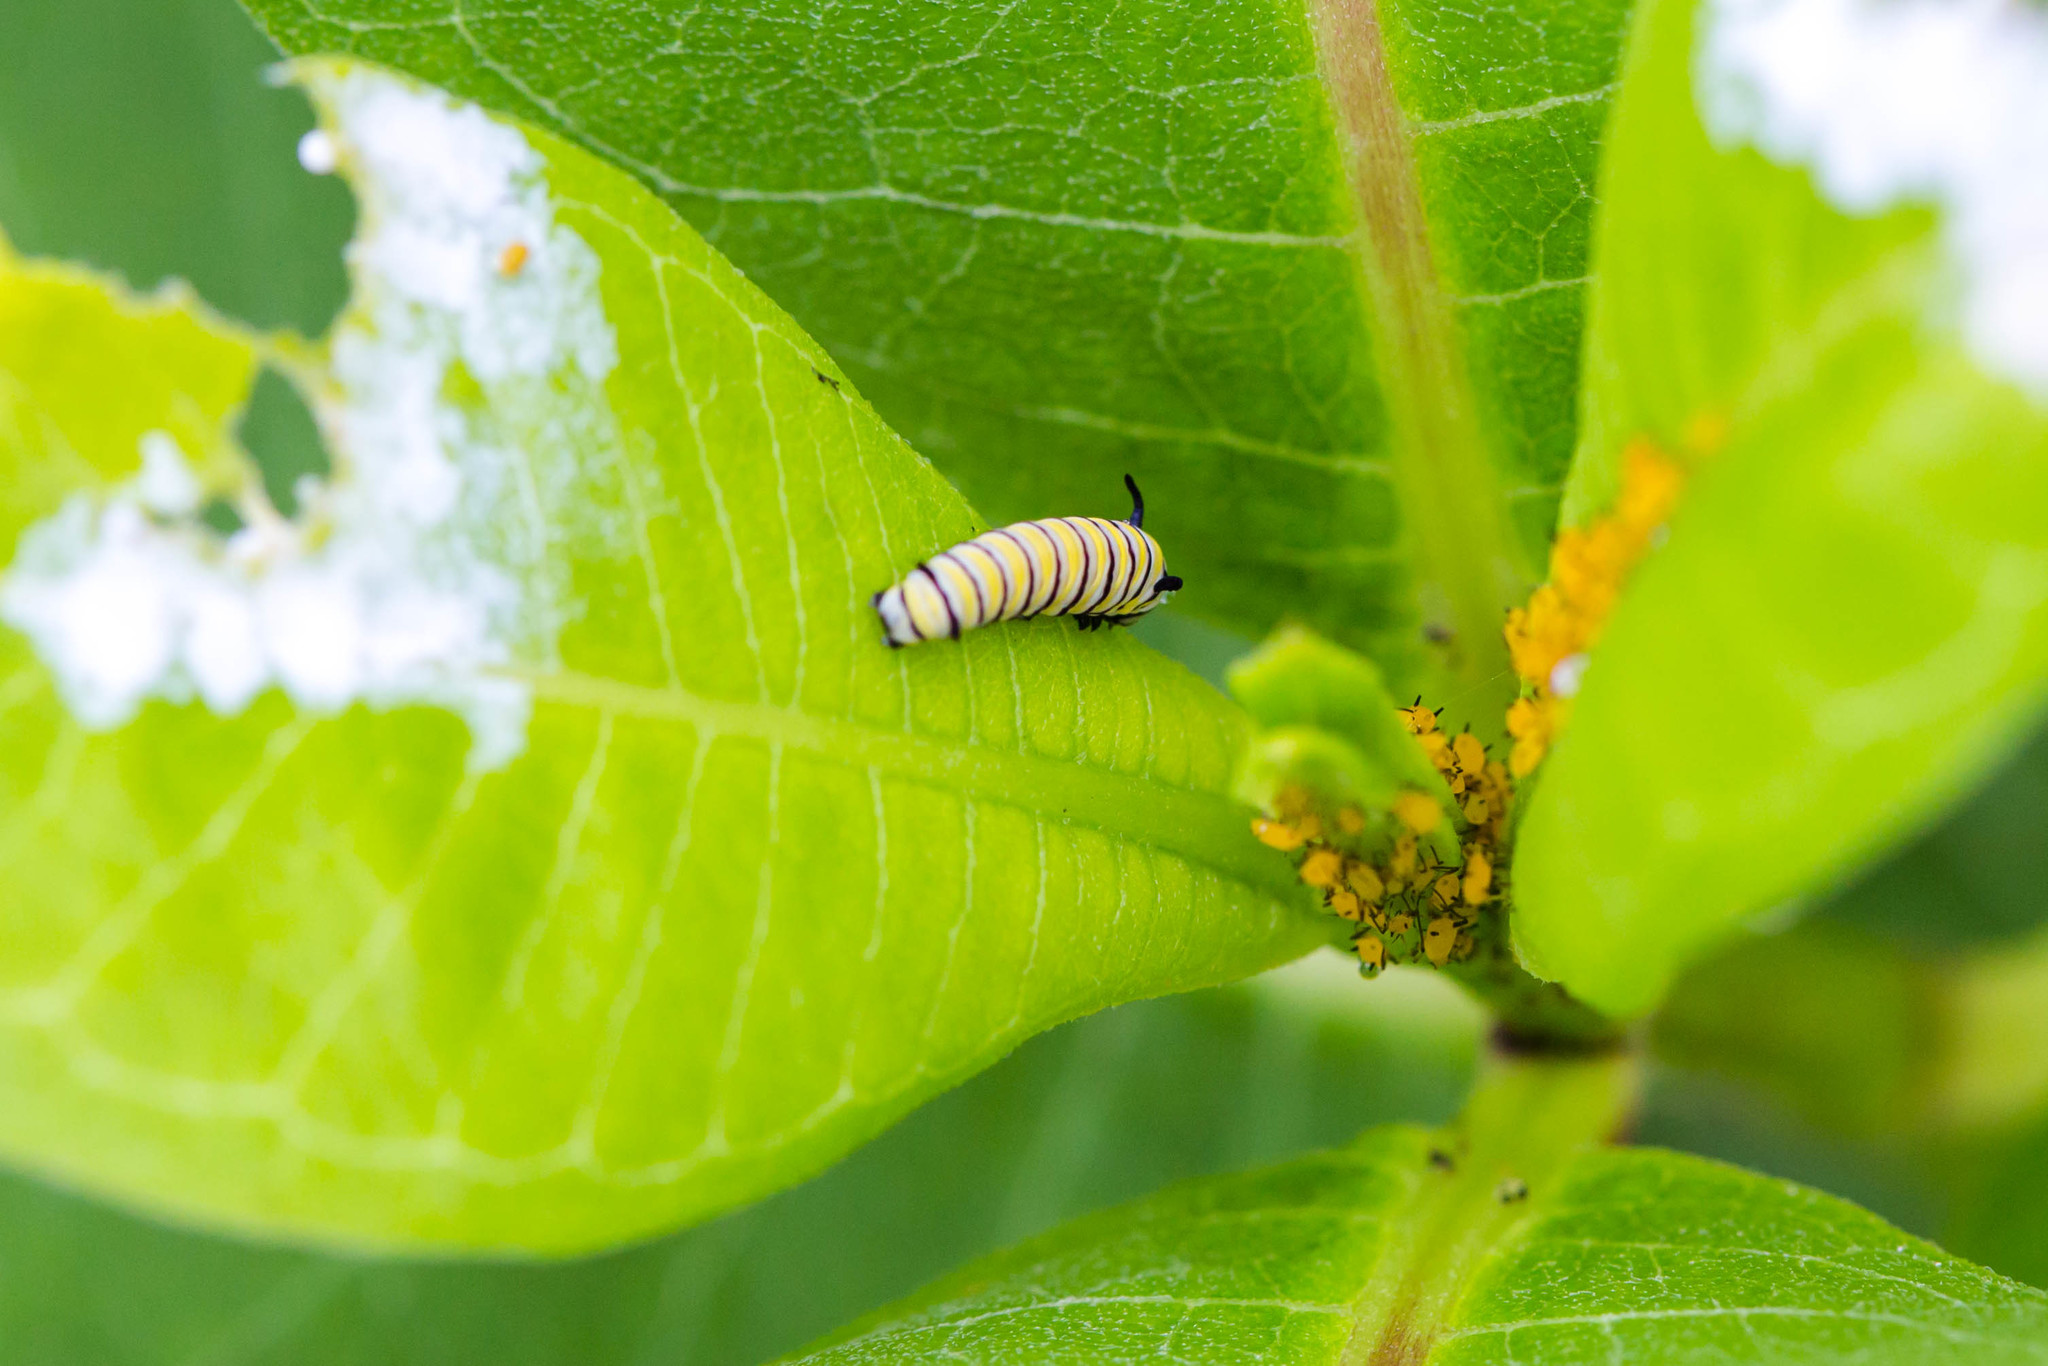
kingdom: Animalia
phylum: Arthropoda
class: Insecta
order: Lepidoptera
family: Nymphalidae
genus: Danaus
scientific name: Danaus plexippus
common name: Monarch
